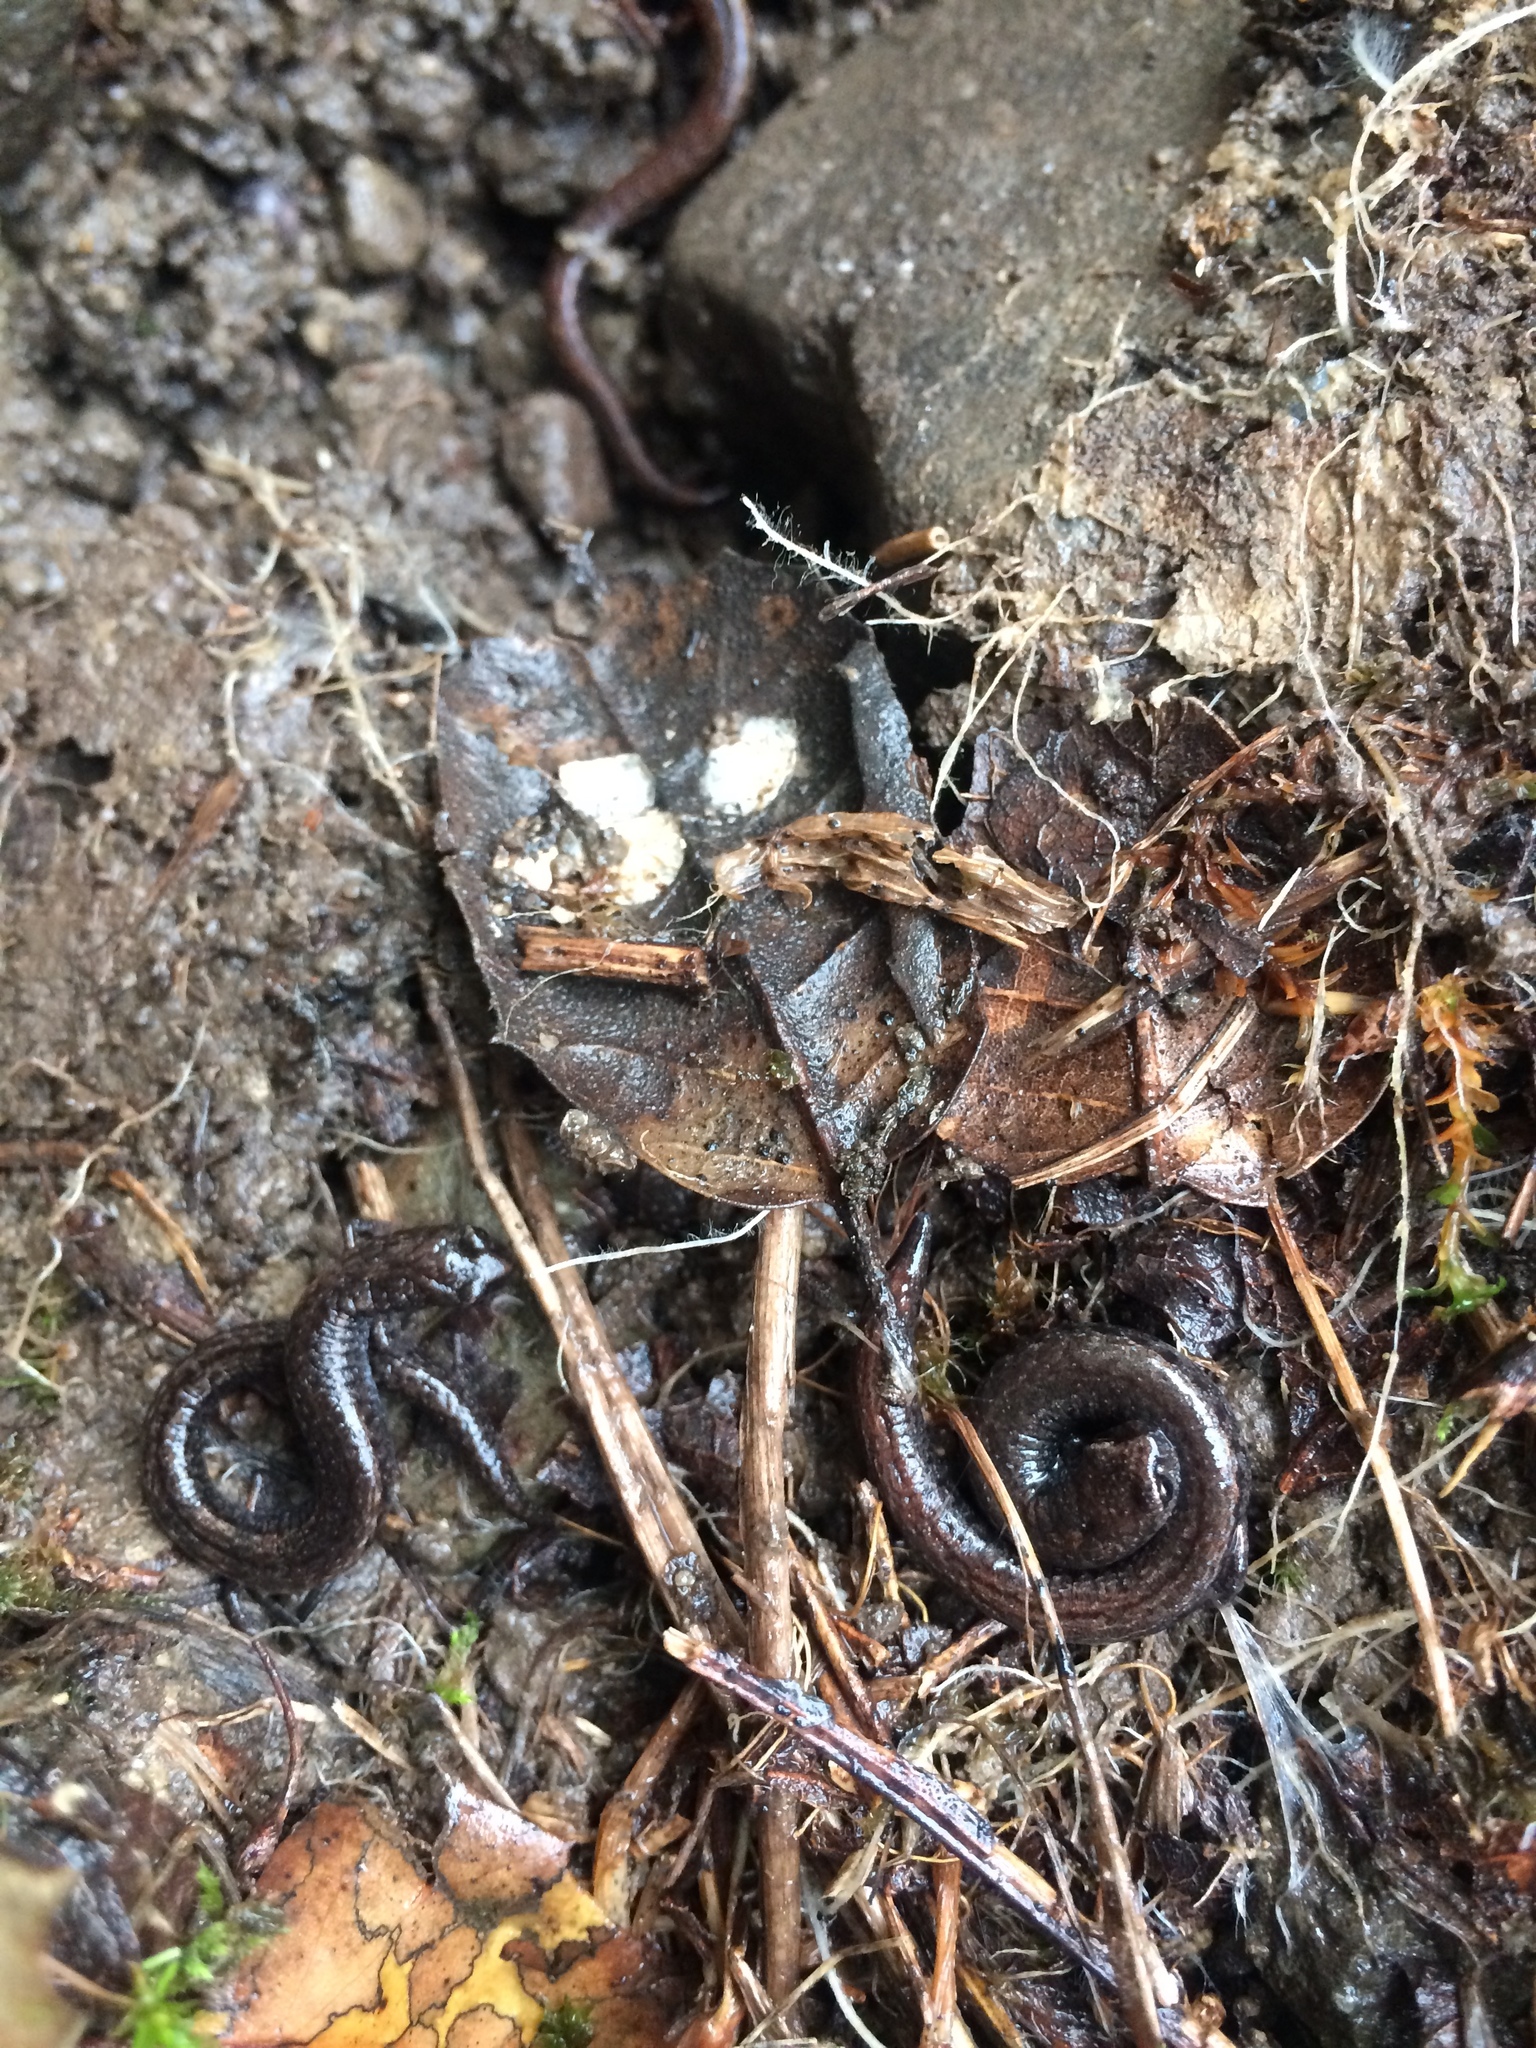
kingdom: Animalia
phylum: Chordata
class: Amphibia
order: Caudata
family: Plethodontidae
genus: Batrachoseps
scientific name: Batrachoseps attenuatus
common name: California slender salamander
